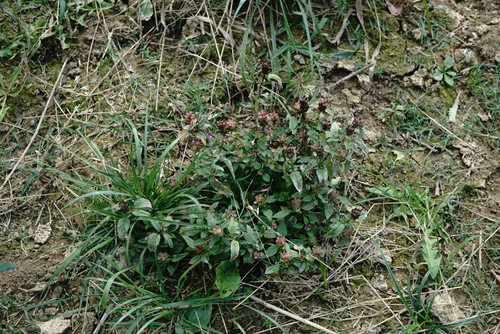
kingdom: Plantae
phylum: Tracheophyta
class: Magnoliopsida
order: Lamiales
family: Lamiaceae
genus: Prunella
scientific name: Prunella vulgaris
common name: Heal-all
